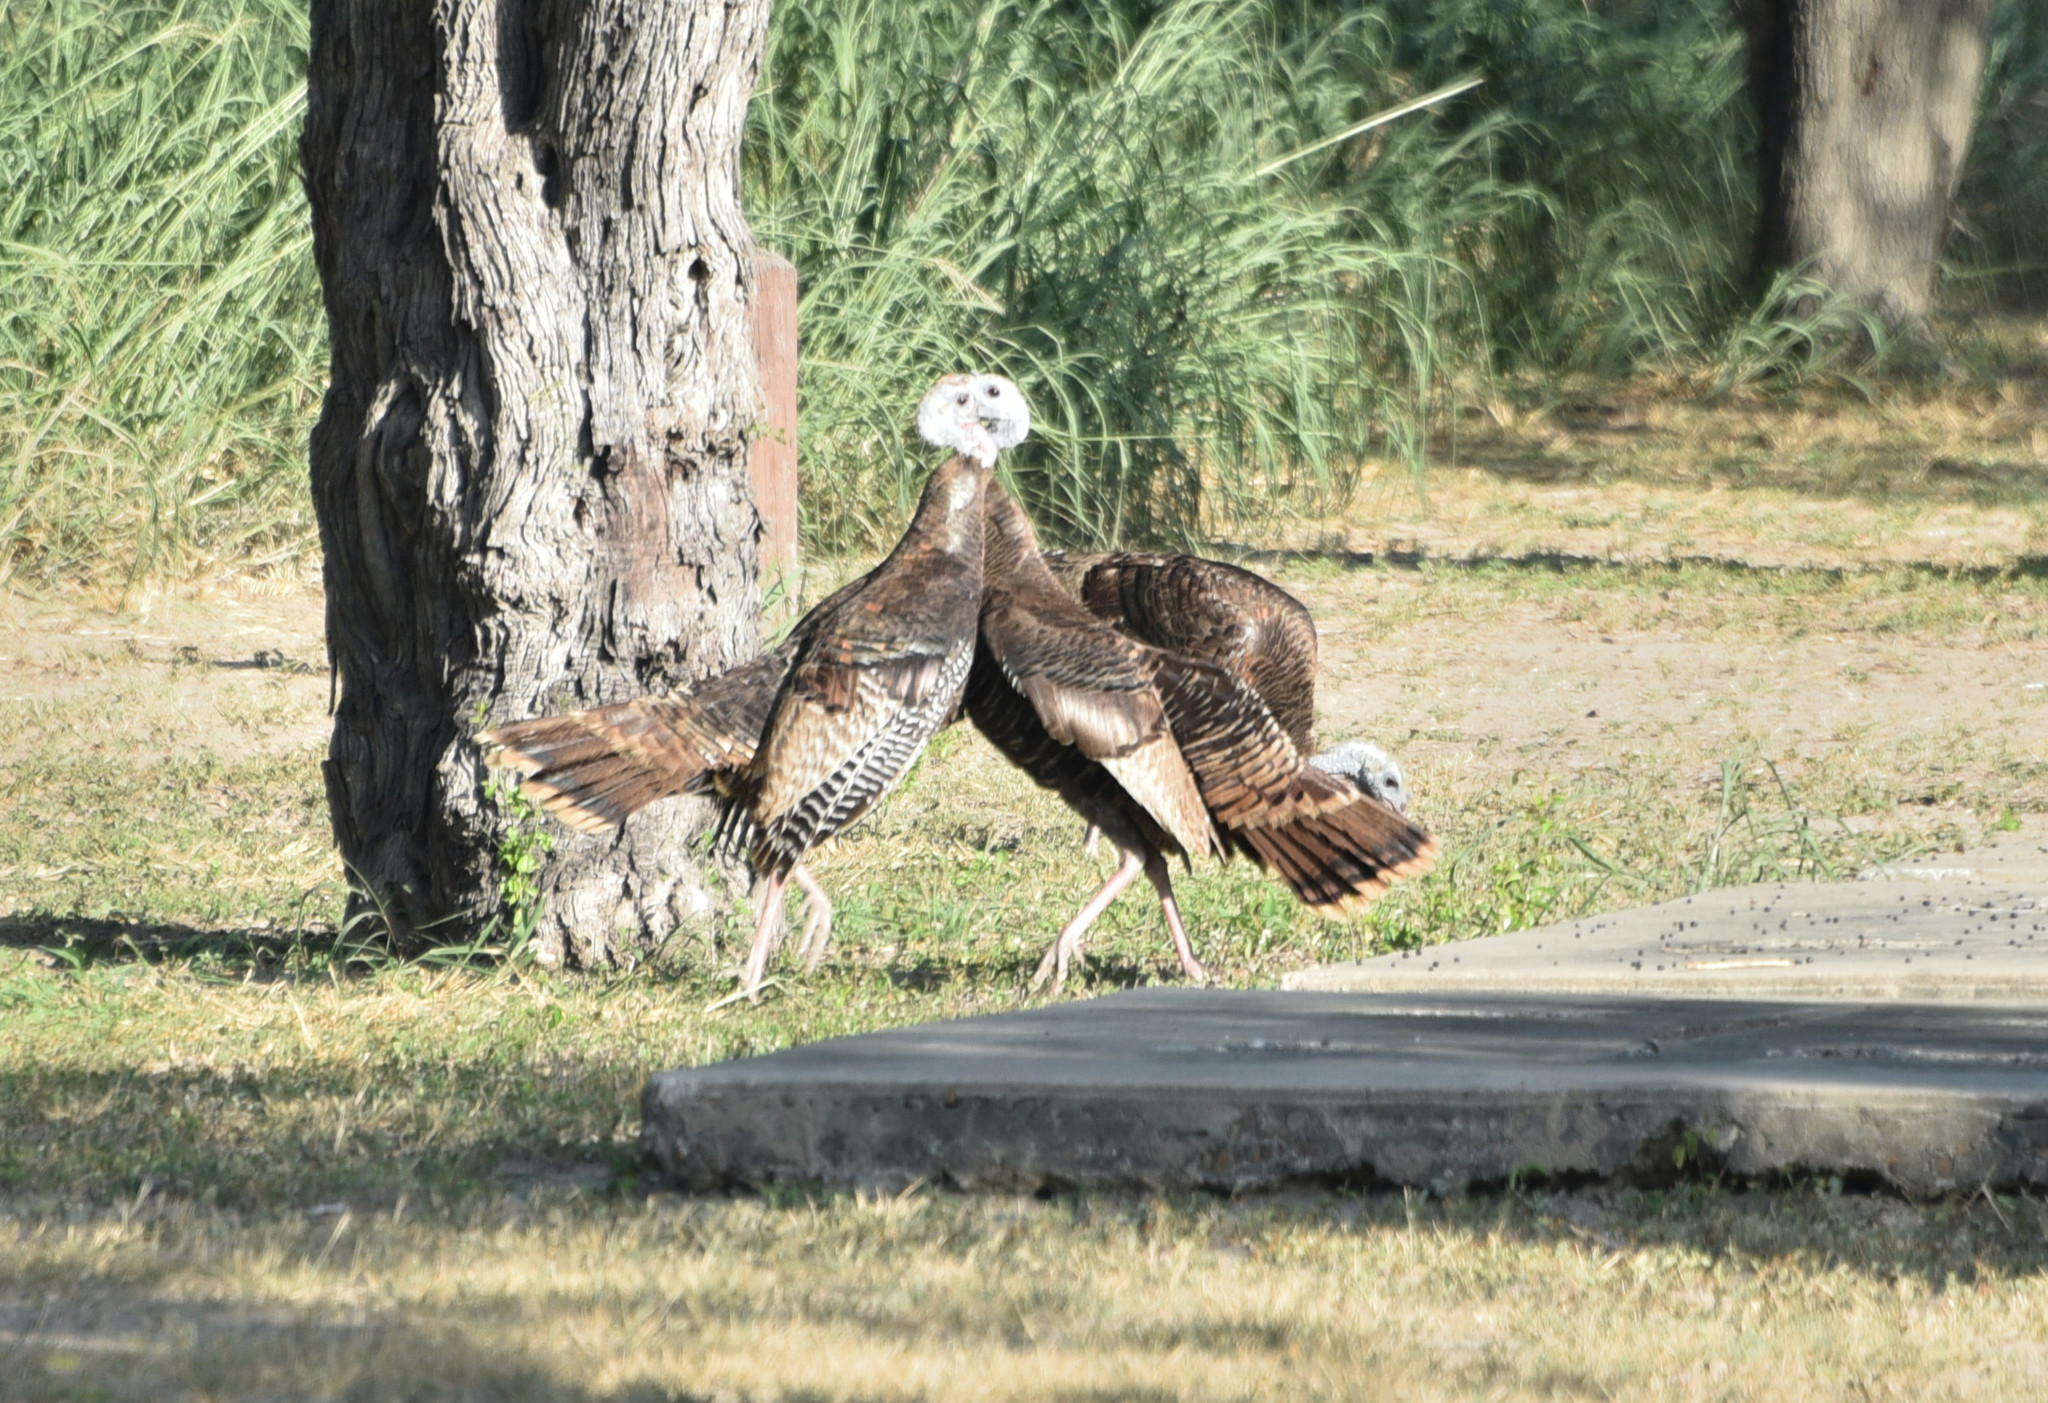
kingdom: Animalia
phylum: Chordata
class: Aves
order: Galliformes
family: Phasianidae
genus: Meleagris
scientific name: Meleagris gallopavo
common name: Wild turkey
